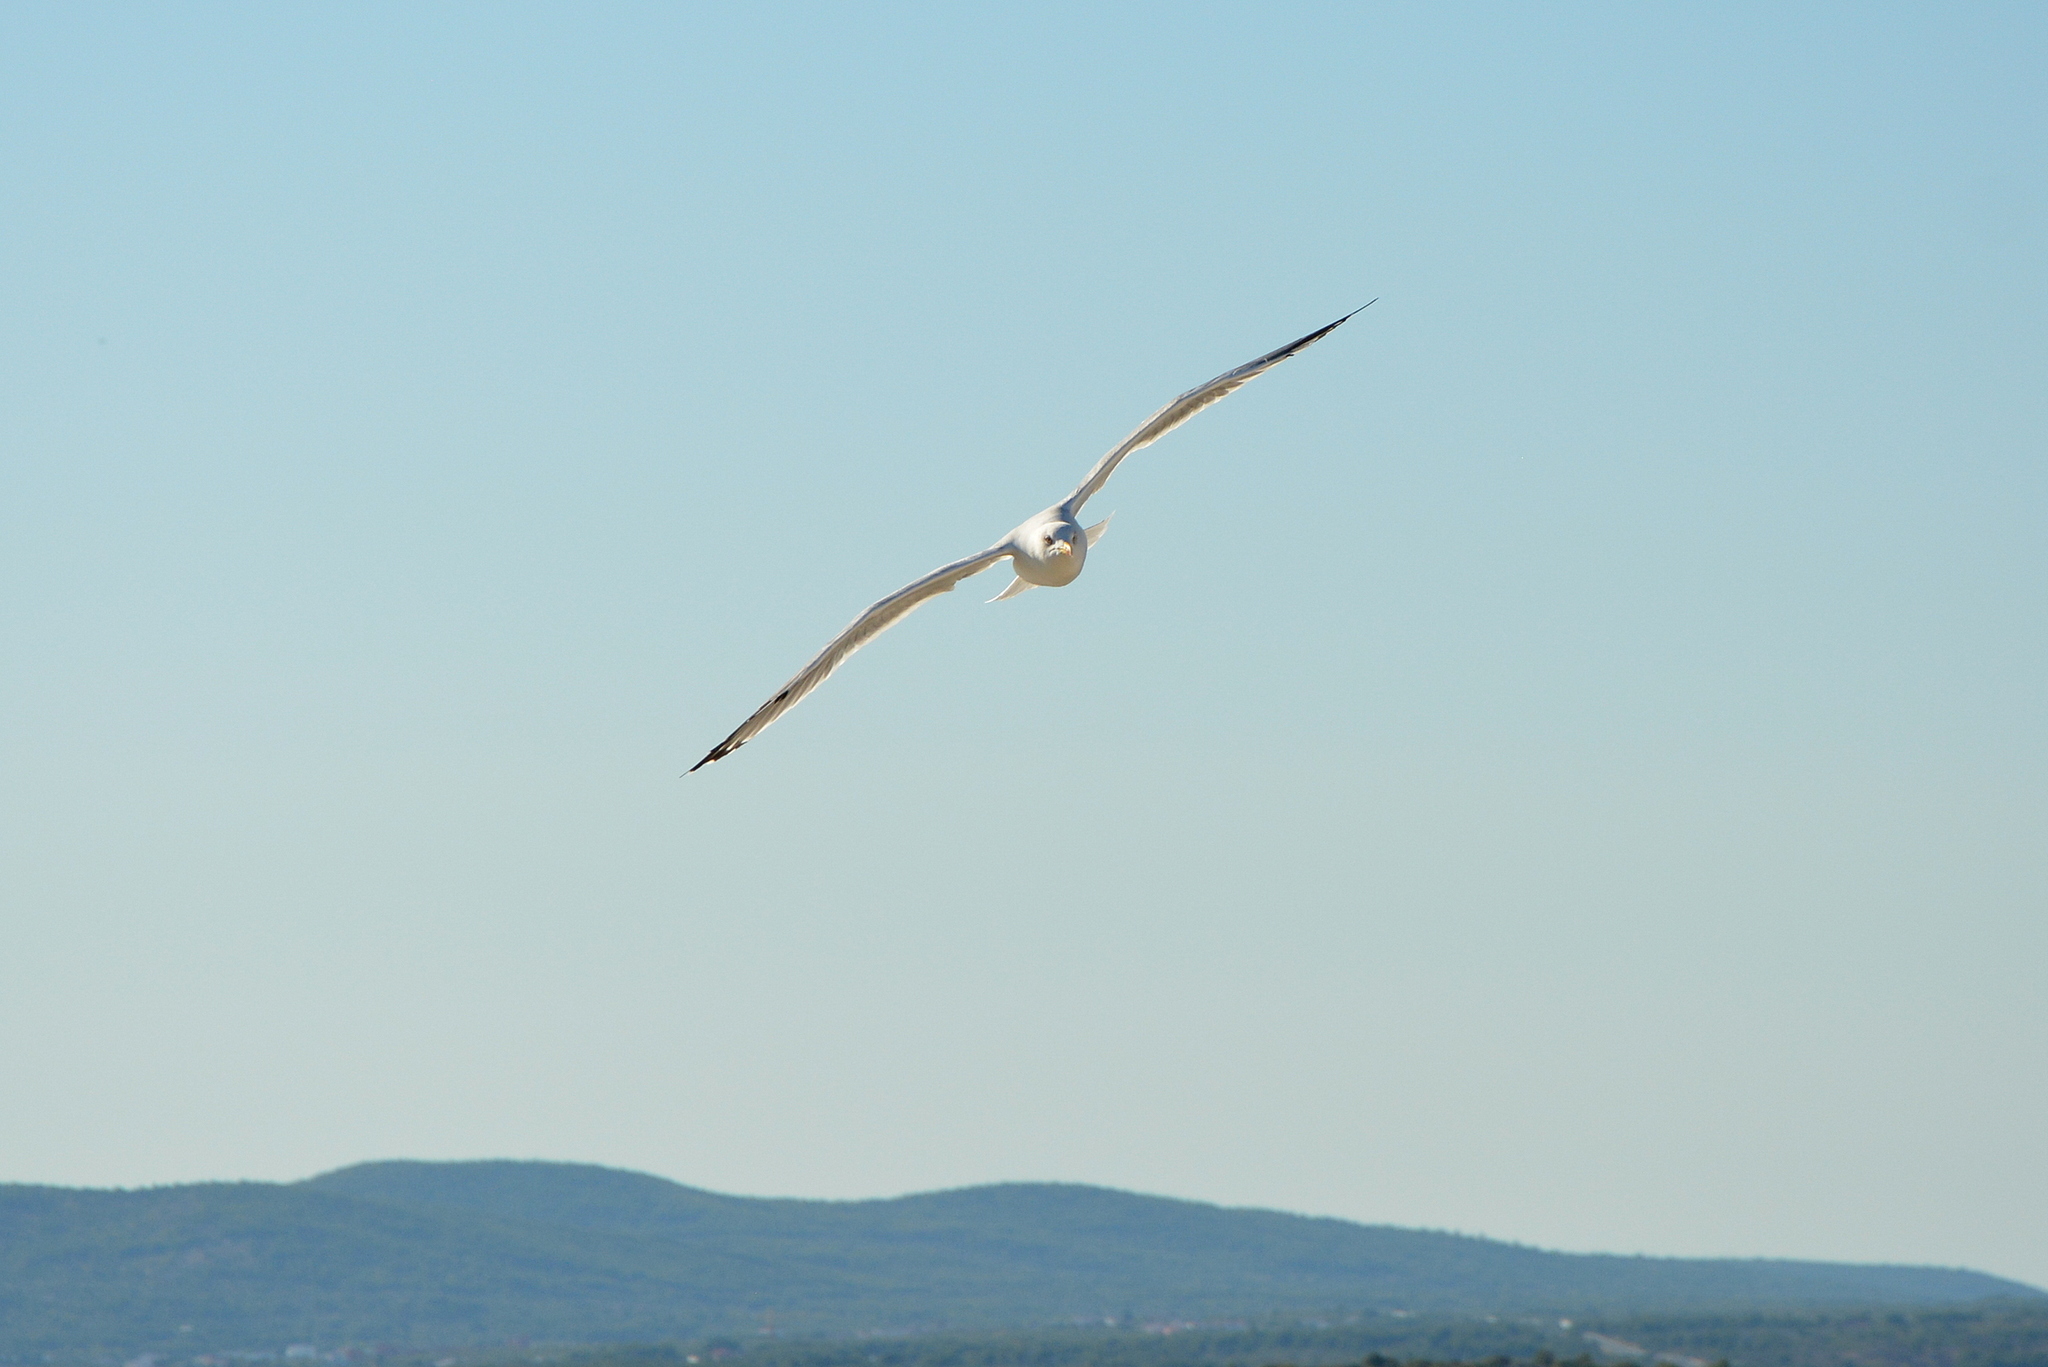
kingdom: Animalia
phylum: Chordata
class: Aves
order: Charadriiformes
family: Laridae
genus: Larus
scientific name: Larus michahellis
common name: Yellow-legged gull
